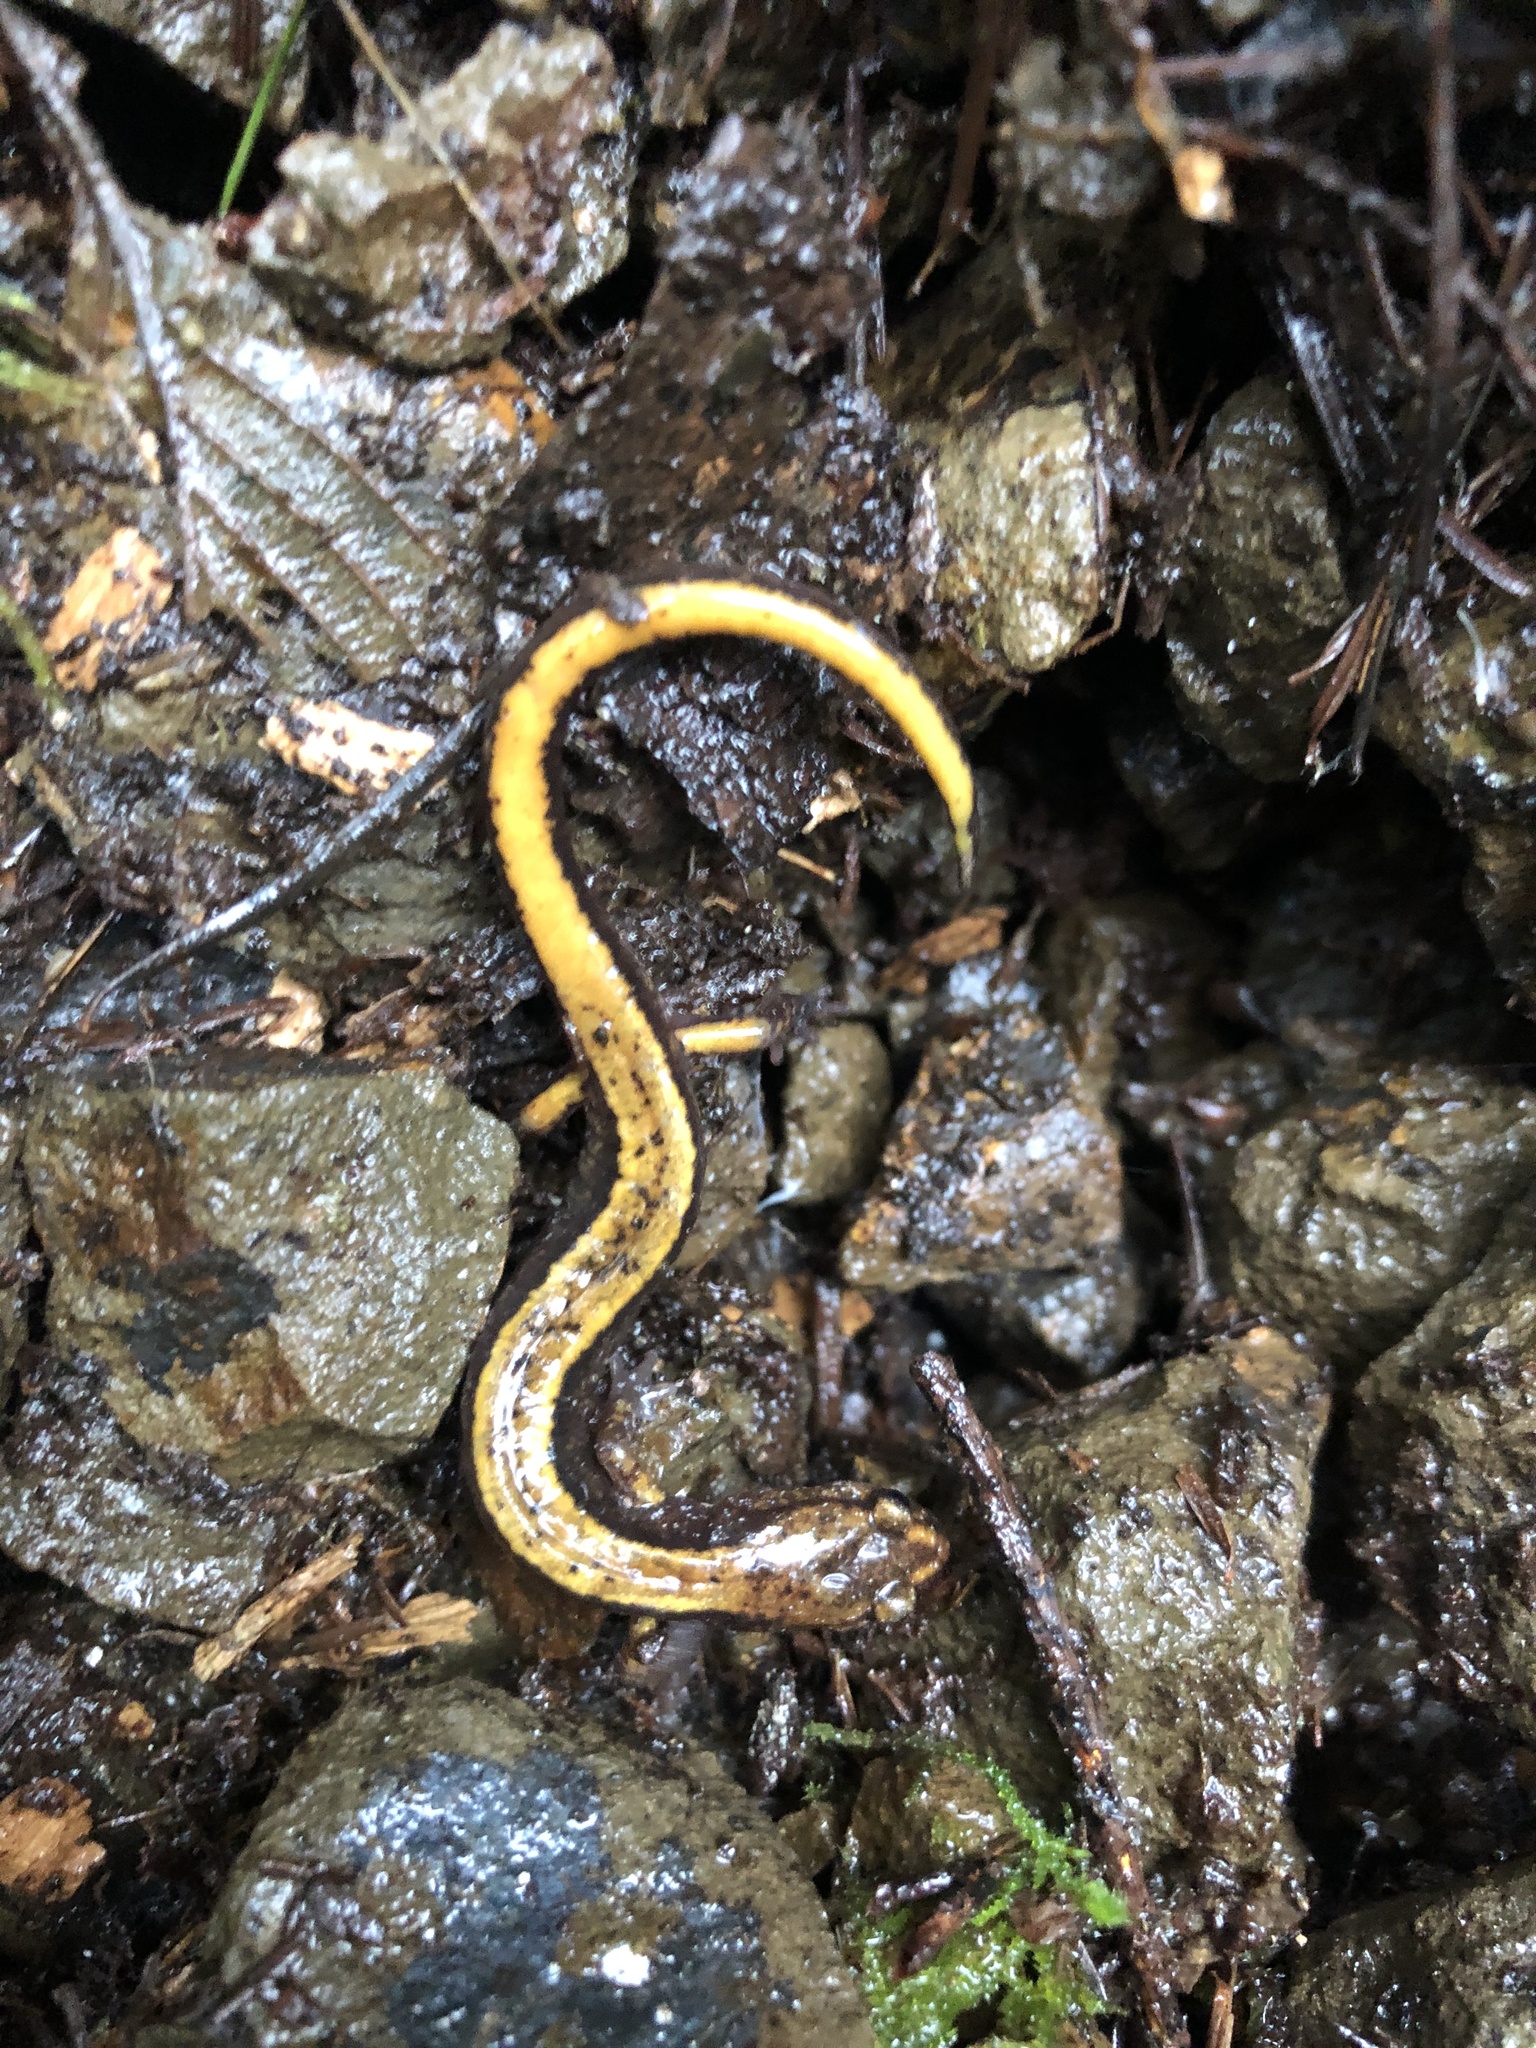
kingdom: Animalia
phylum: Chordata
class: Amphibia
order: Caudata
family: Plethodontidae
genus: Plethodon
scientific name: Plethodon vehiculum
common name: Western red-backed salamander
